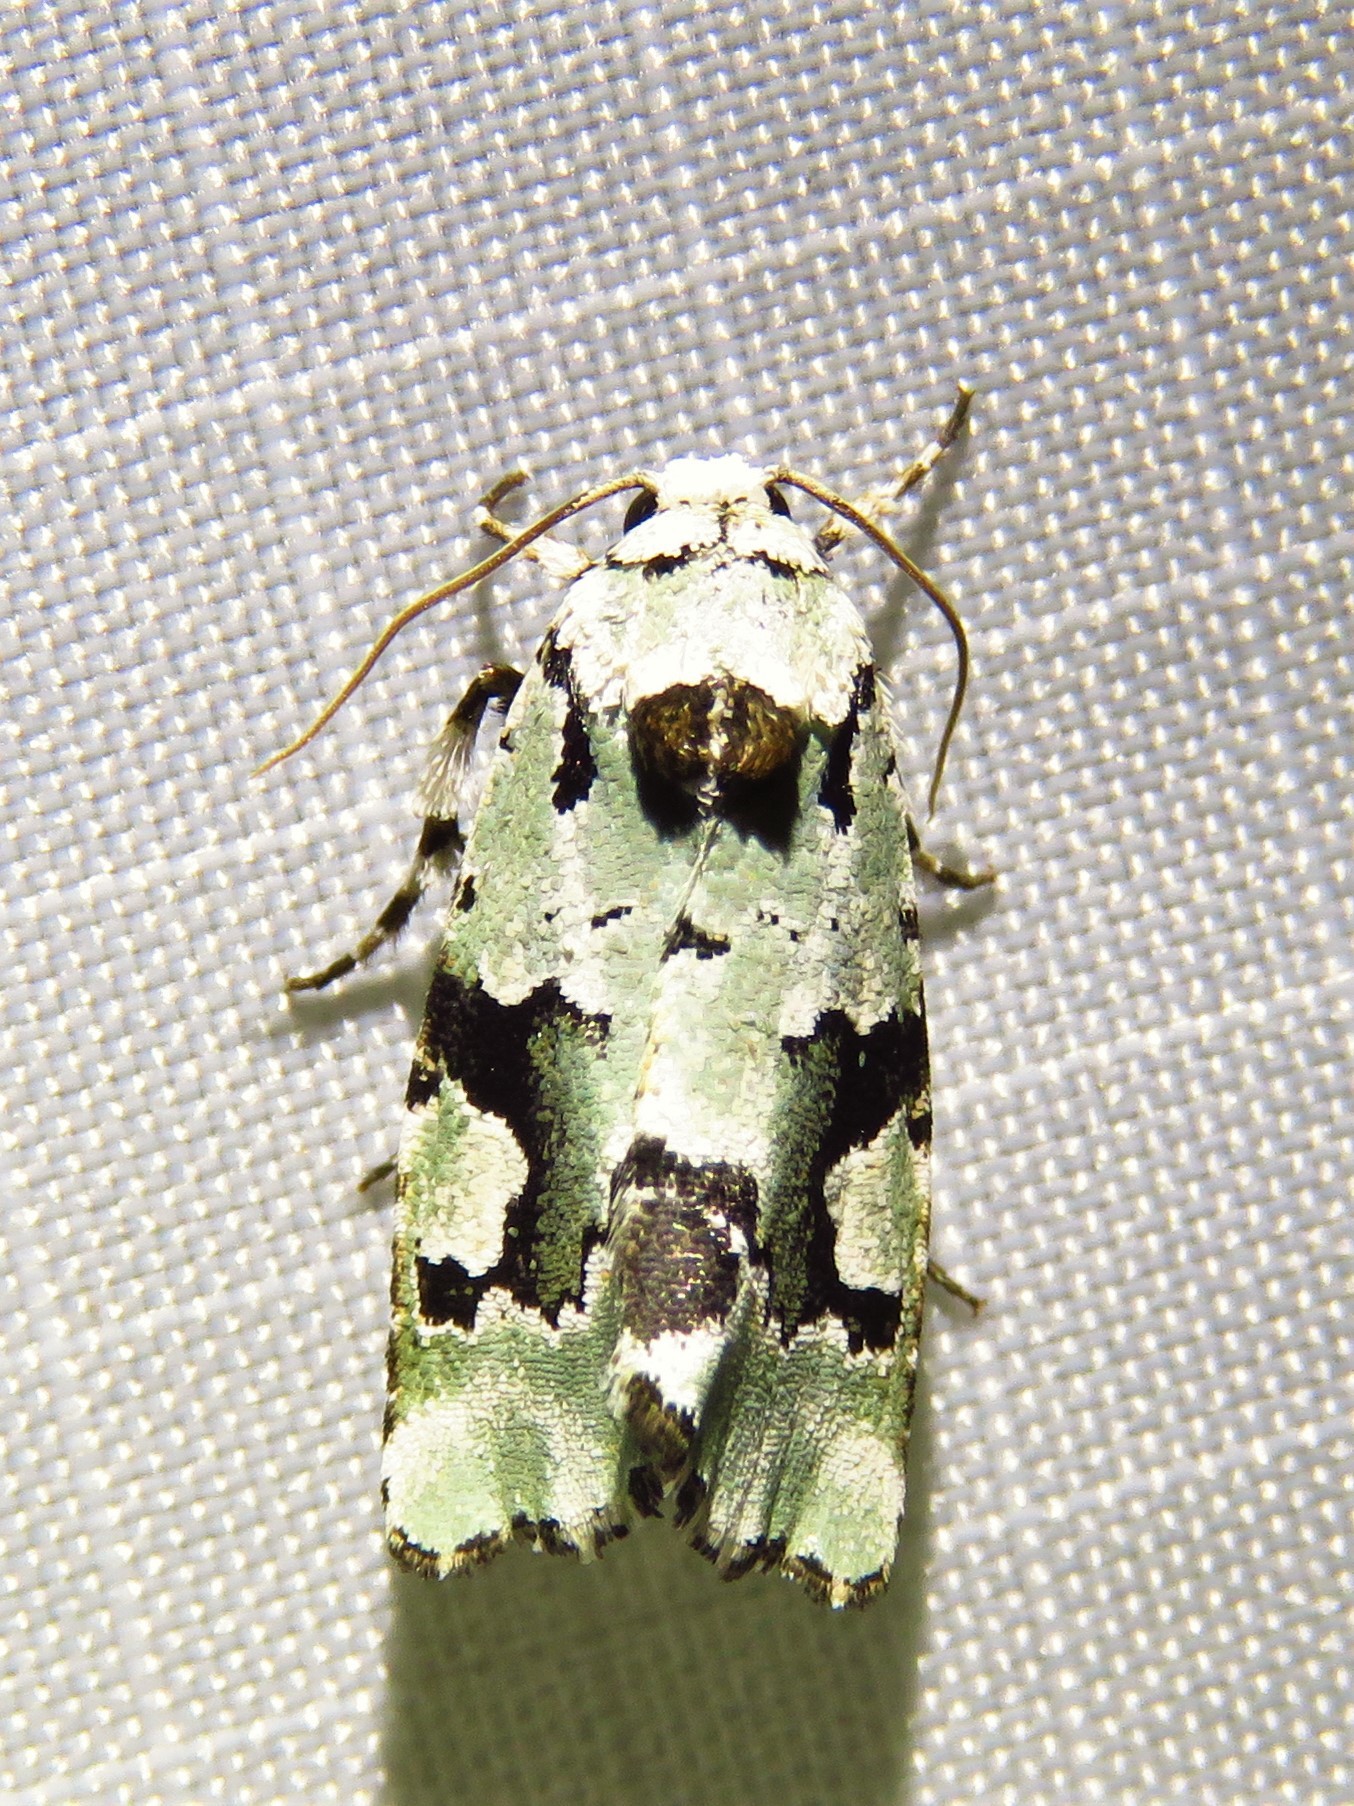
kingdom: Animalia
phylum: Arthropoda
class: Insecta
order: Lepidoptera
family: Noctuidae
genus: Emarginea
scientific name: Emarginea percara
